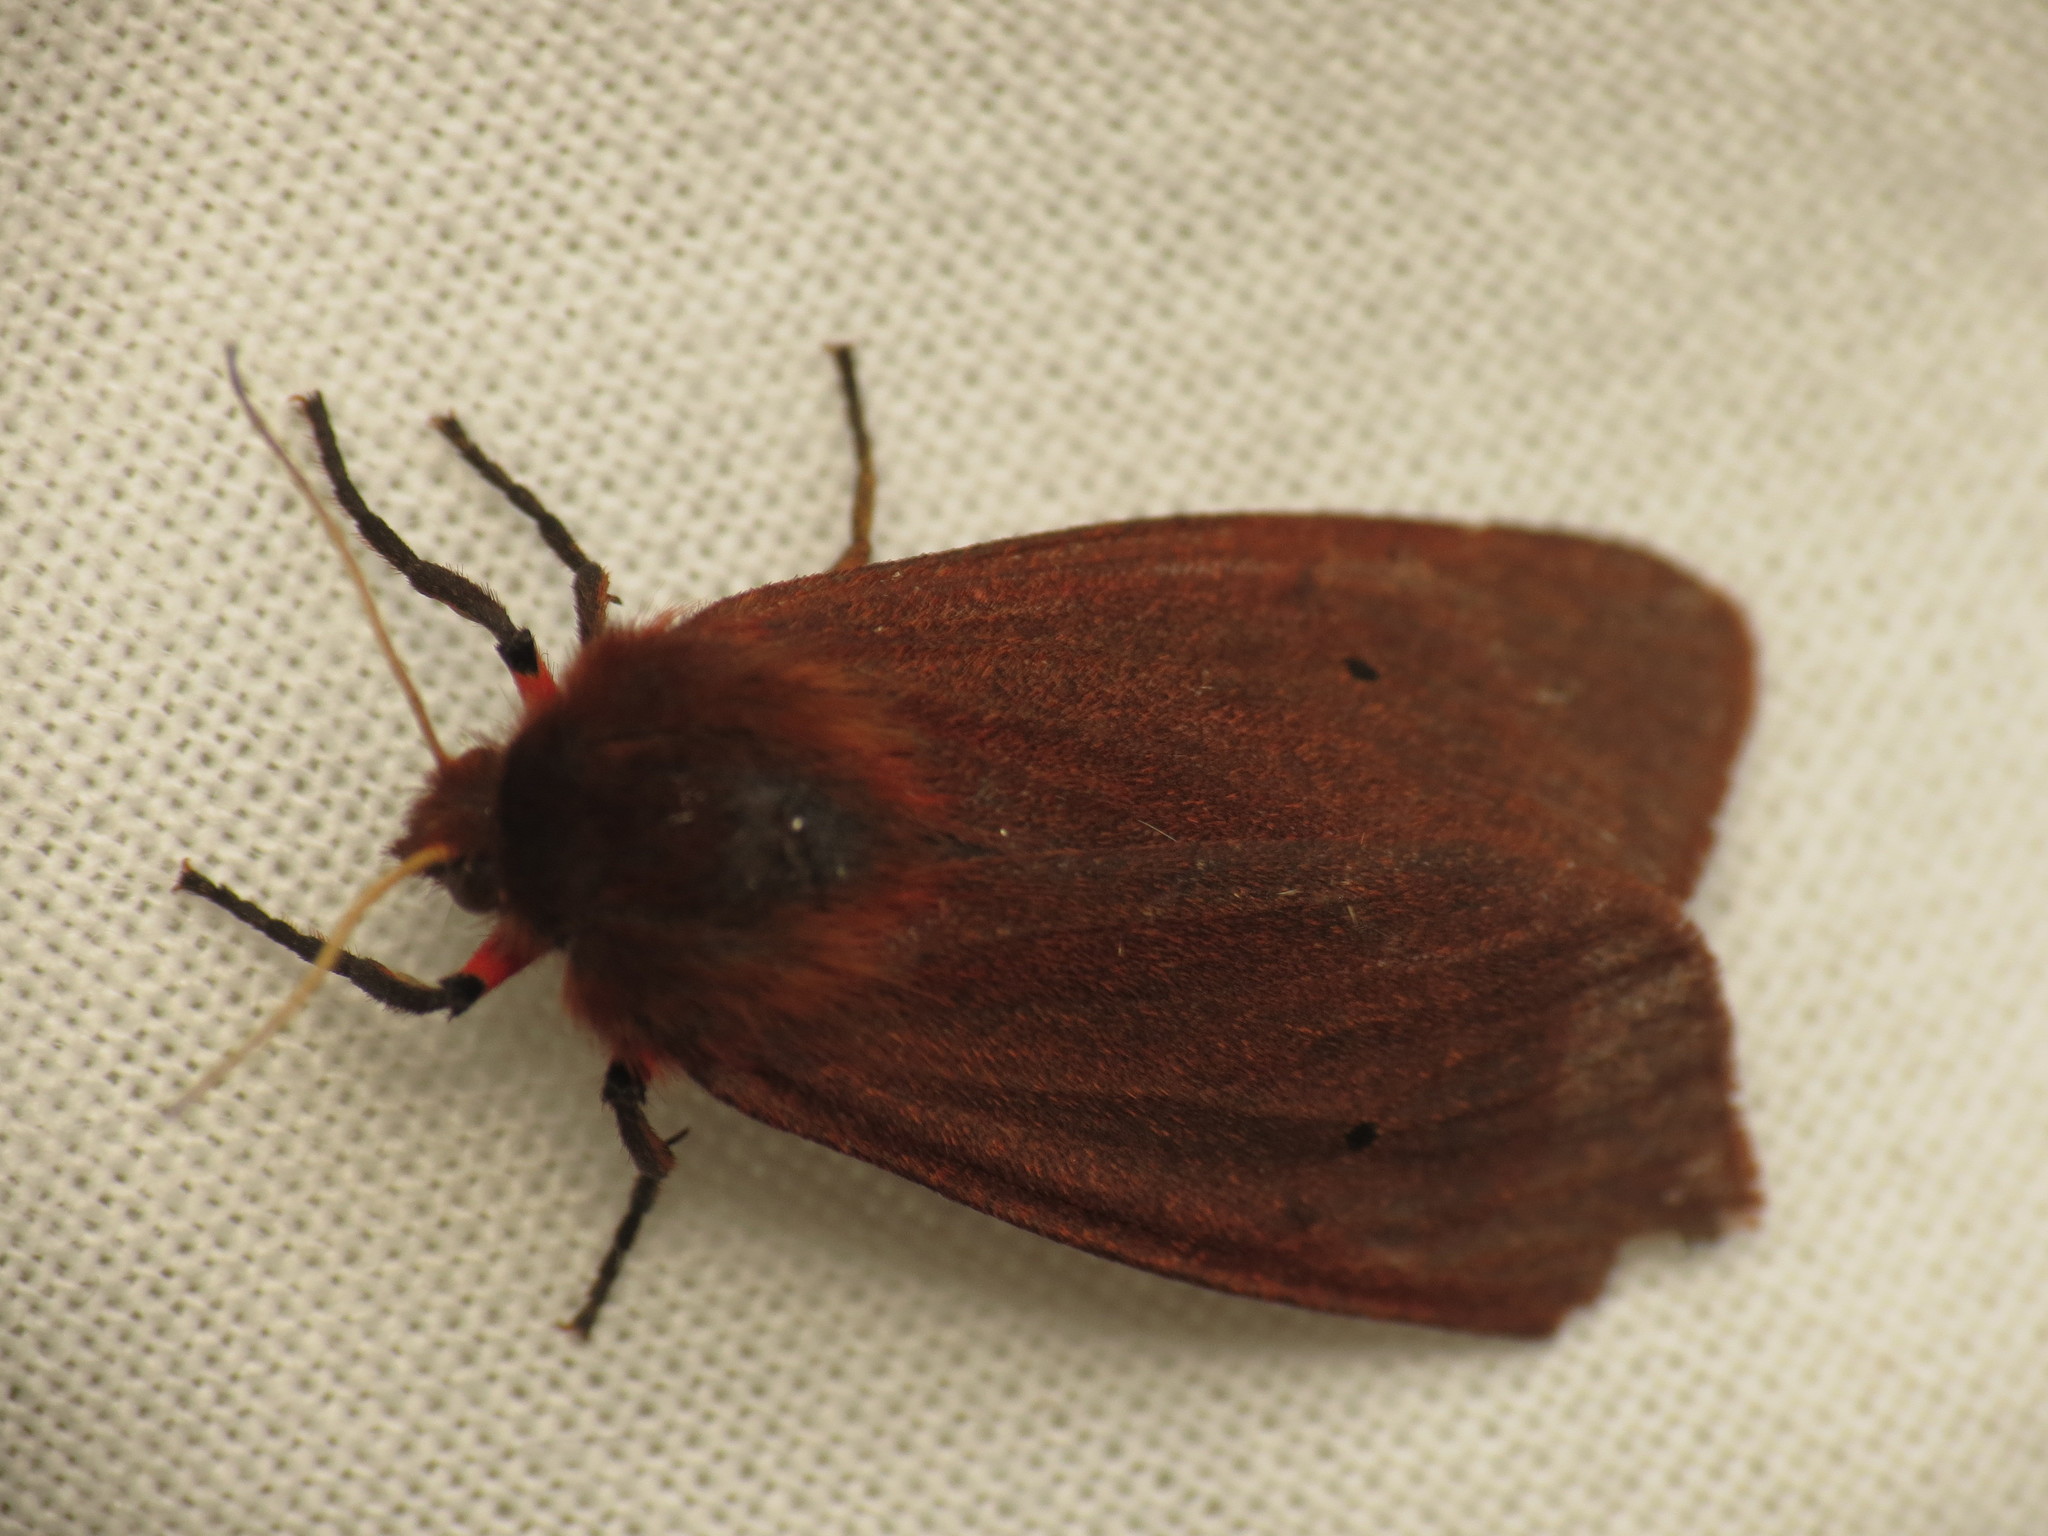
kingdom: Animalia
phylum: Arthropoda
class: Insecta
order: Lepidoptera
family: Erebidae
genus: Phragmatobia
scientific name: Phragmatobia fuliginosa
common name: Ruby tiger
